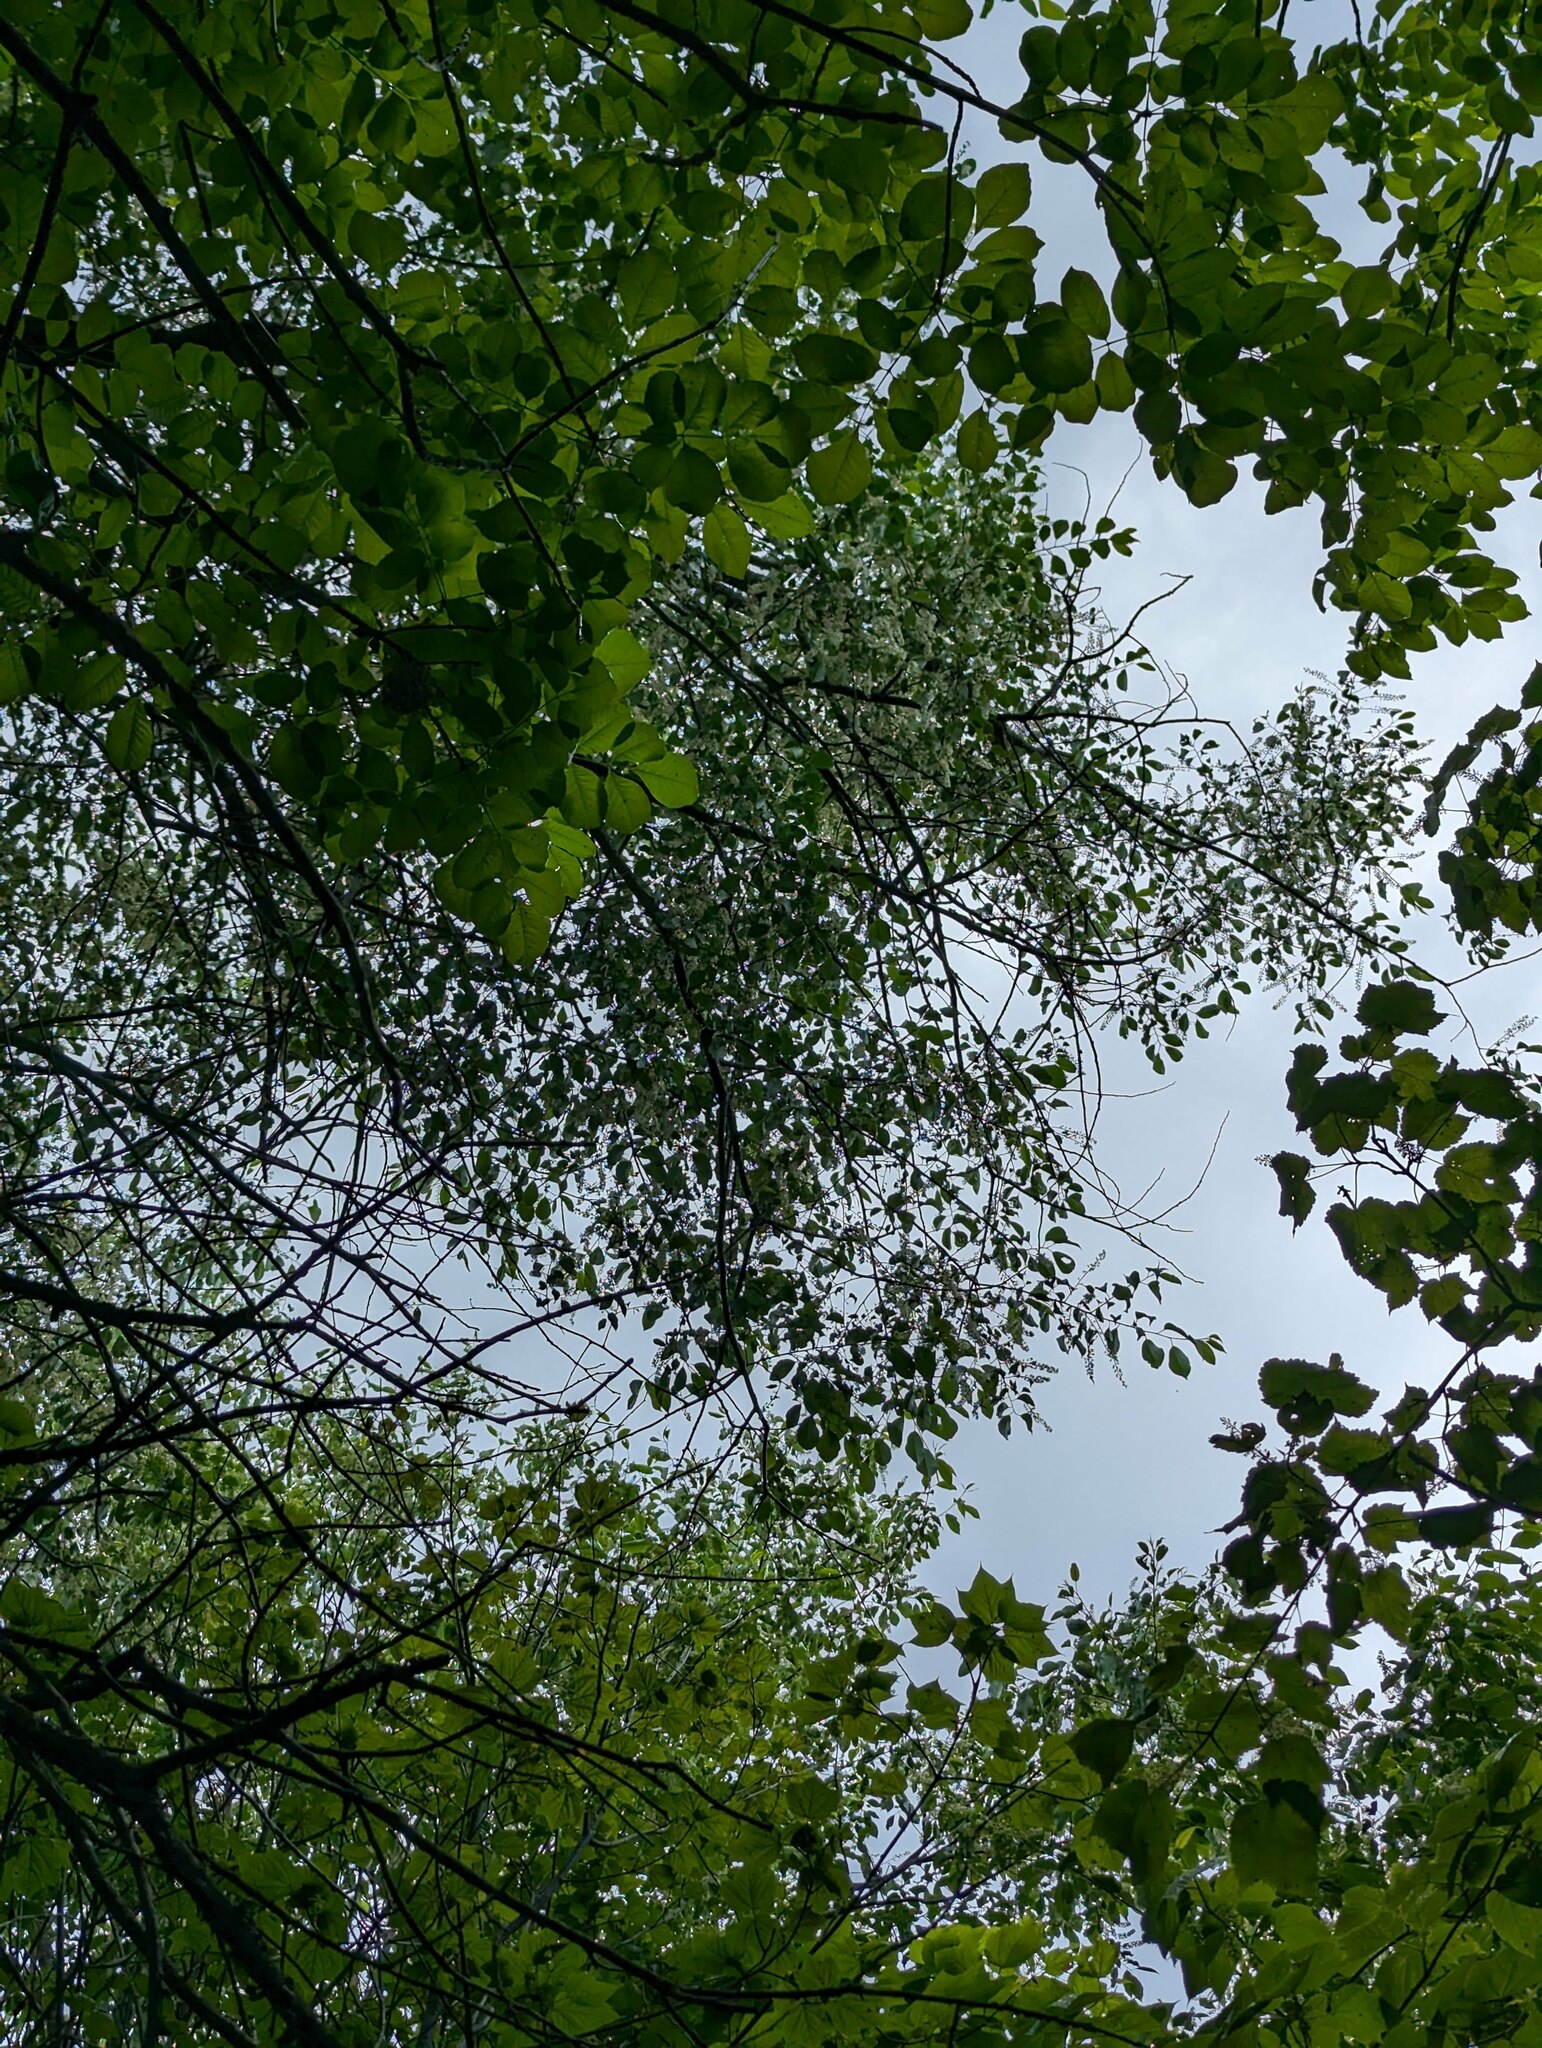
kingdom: Plantae
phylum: Tracheophyta
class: Magnoliopsida
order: Rosales
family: Rosaceae
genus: Prunus
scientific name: Prunus serotina
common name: Black cherry
